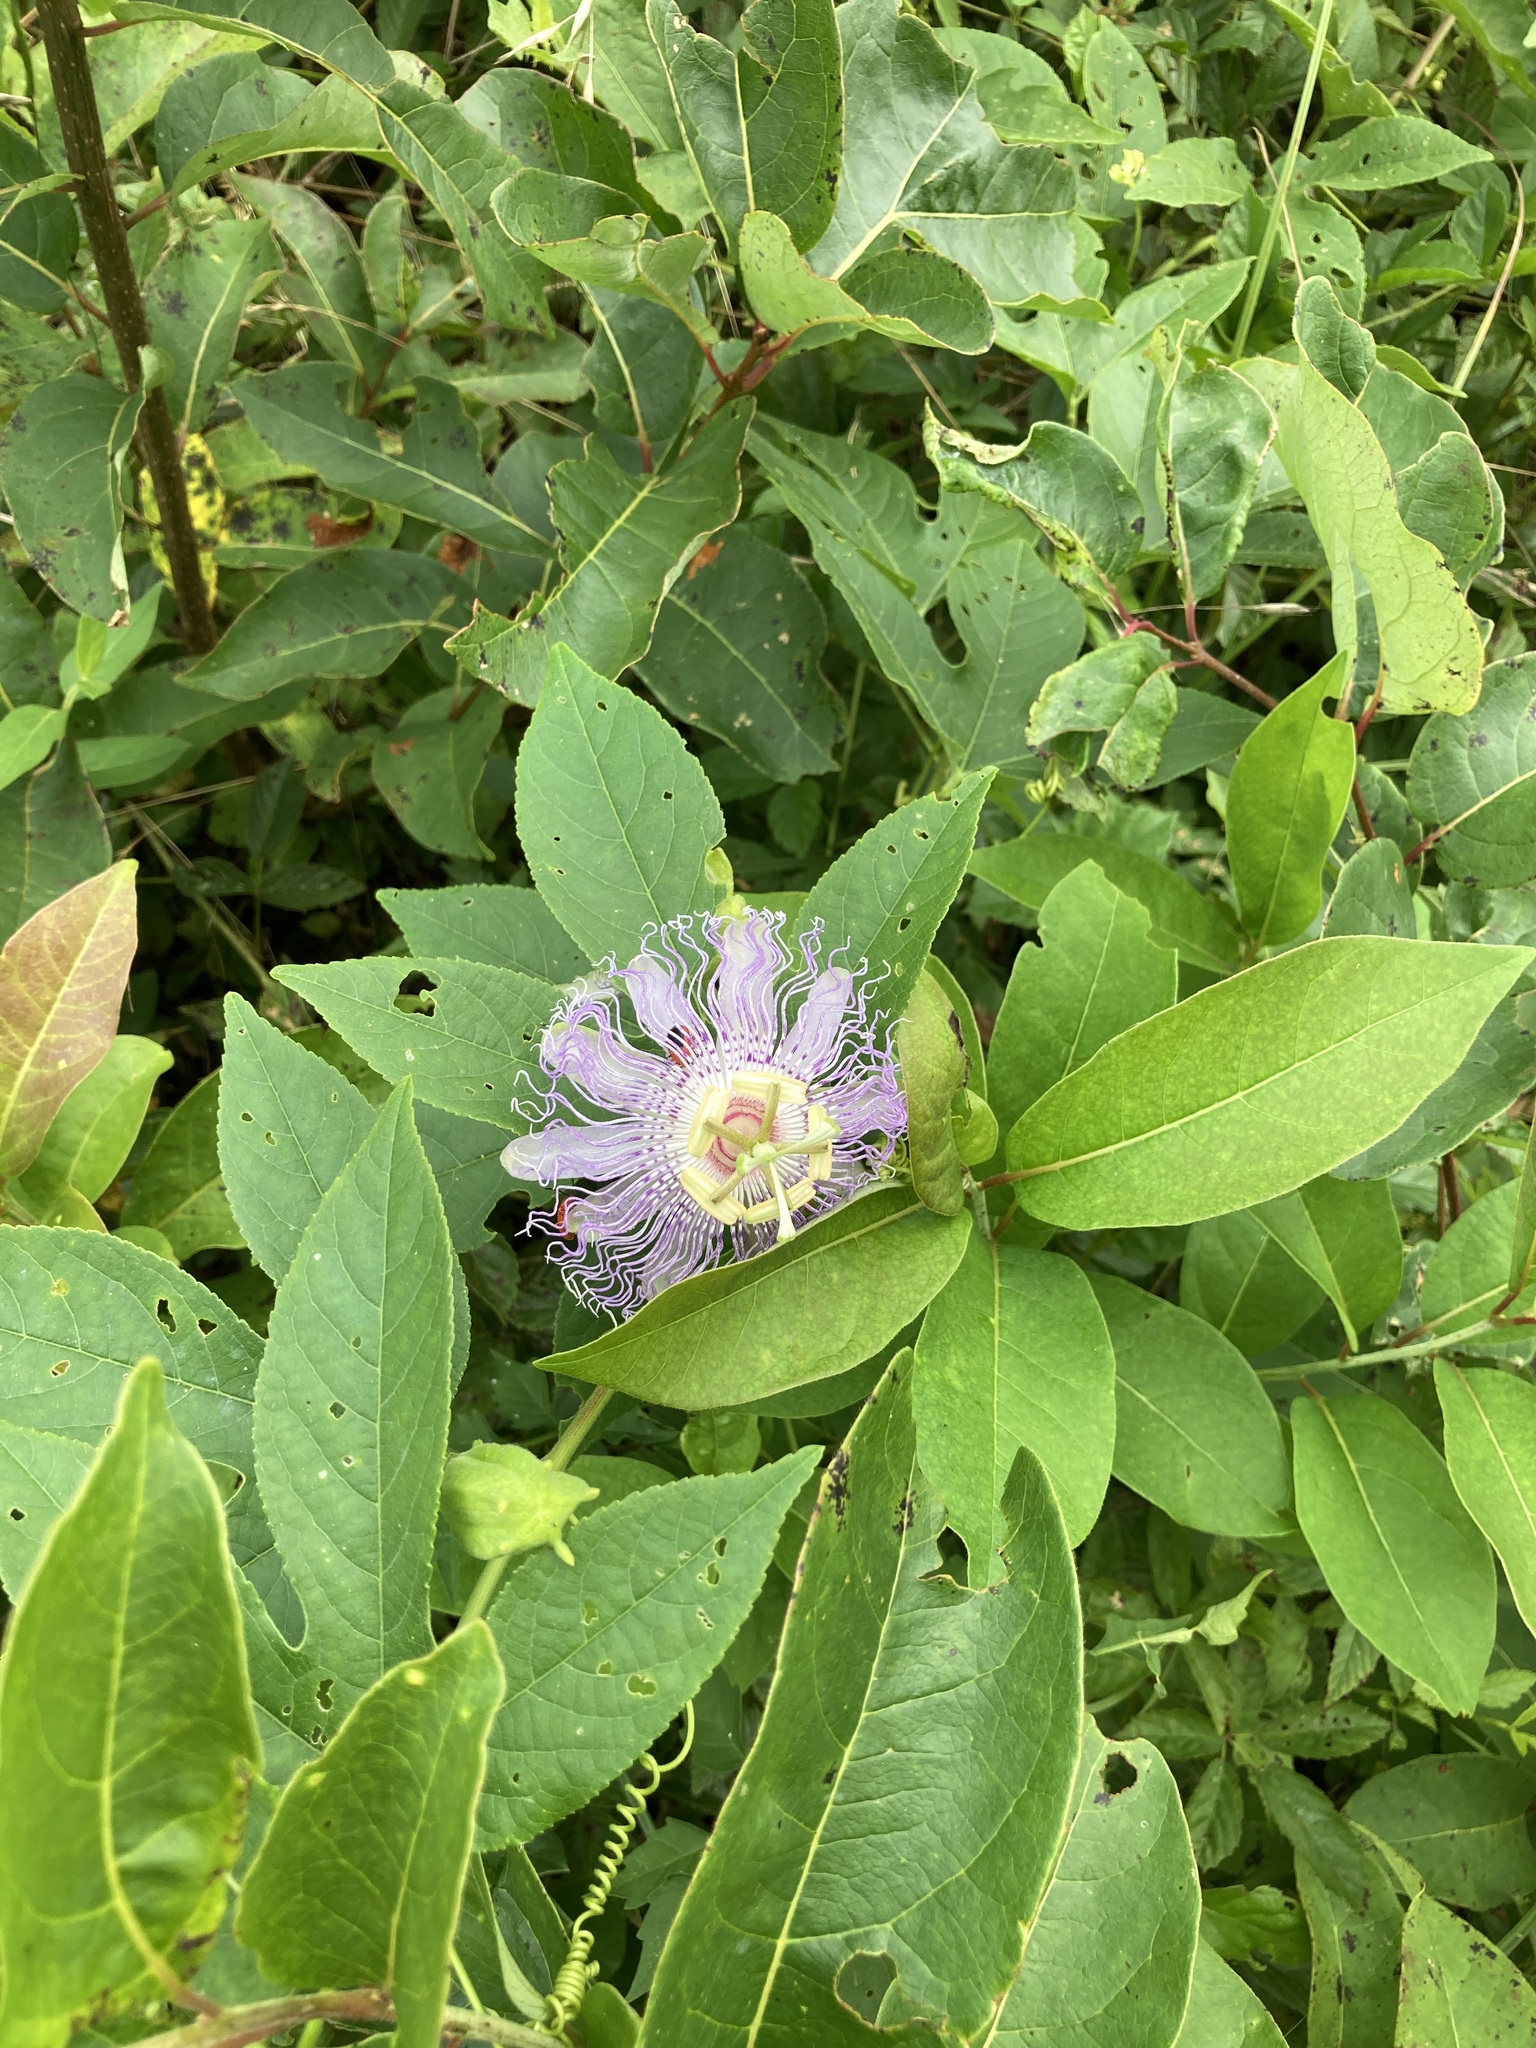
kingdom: Plantae
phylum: Tracheophyta
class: Magnoliopsida
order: Malpighiales
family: Passifloraceae
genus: Passiflora
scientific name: Passiflora incarnata
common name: Apricot-vine
